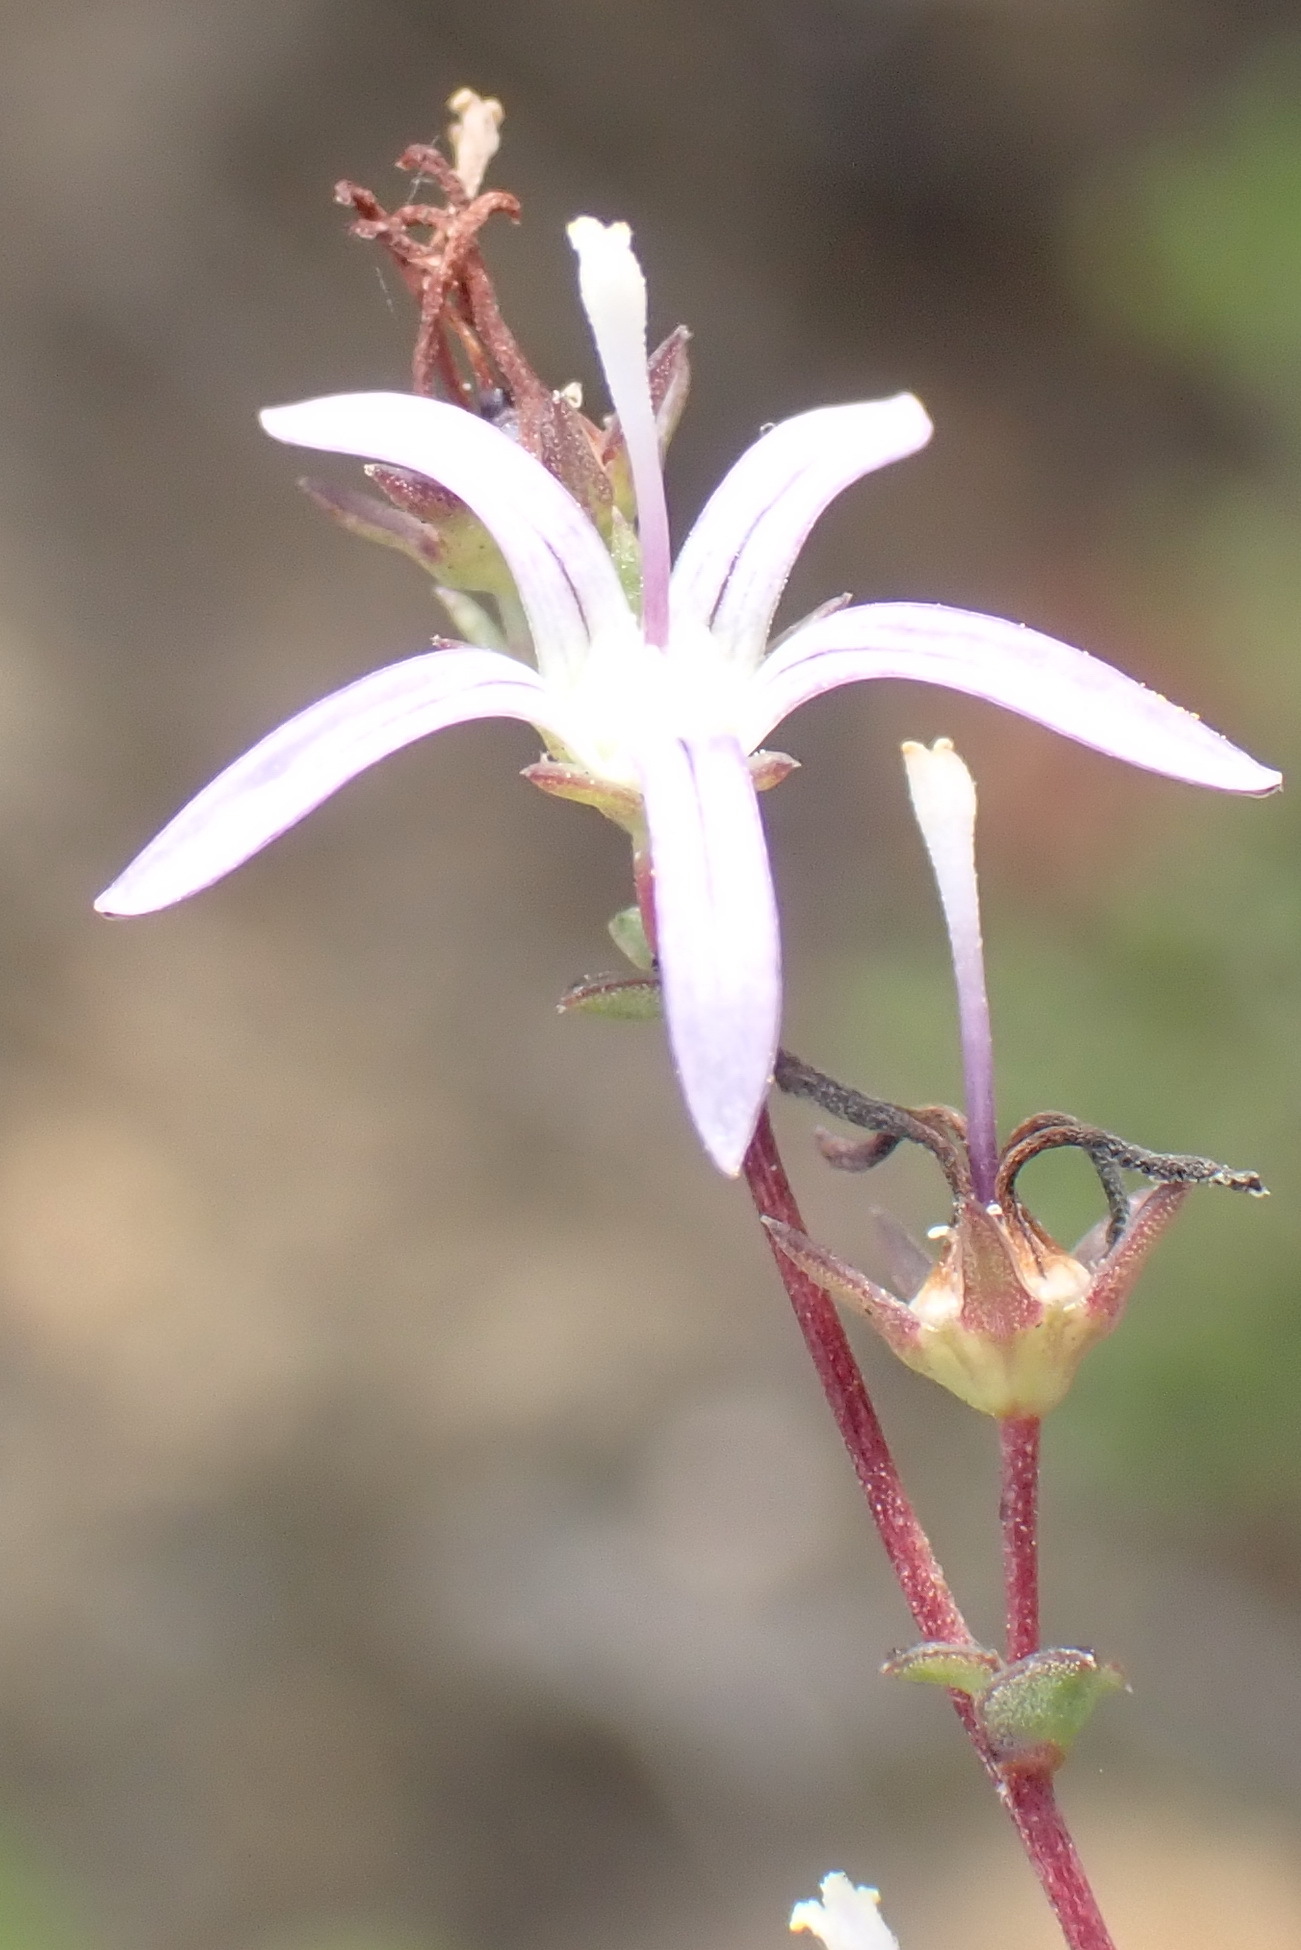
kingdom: Plantae
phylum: Tracheophyta
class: Magnoliopsida
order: Asterales
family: Campanulaceae
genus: Wahlenbergia
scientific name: Wahlenbergia parvifolia
